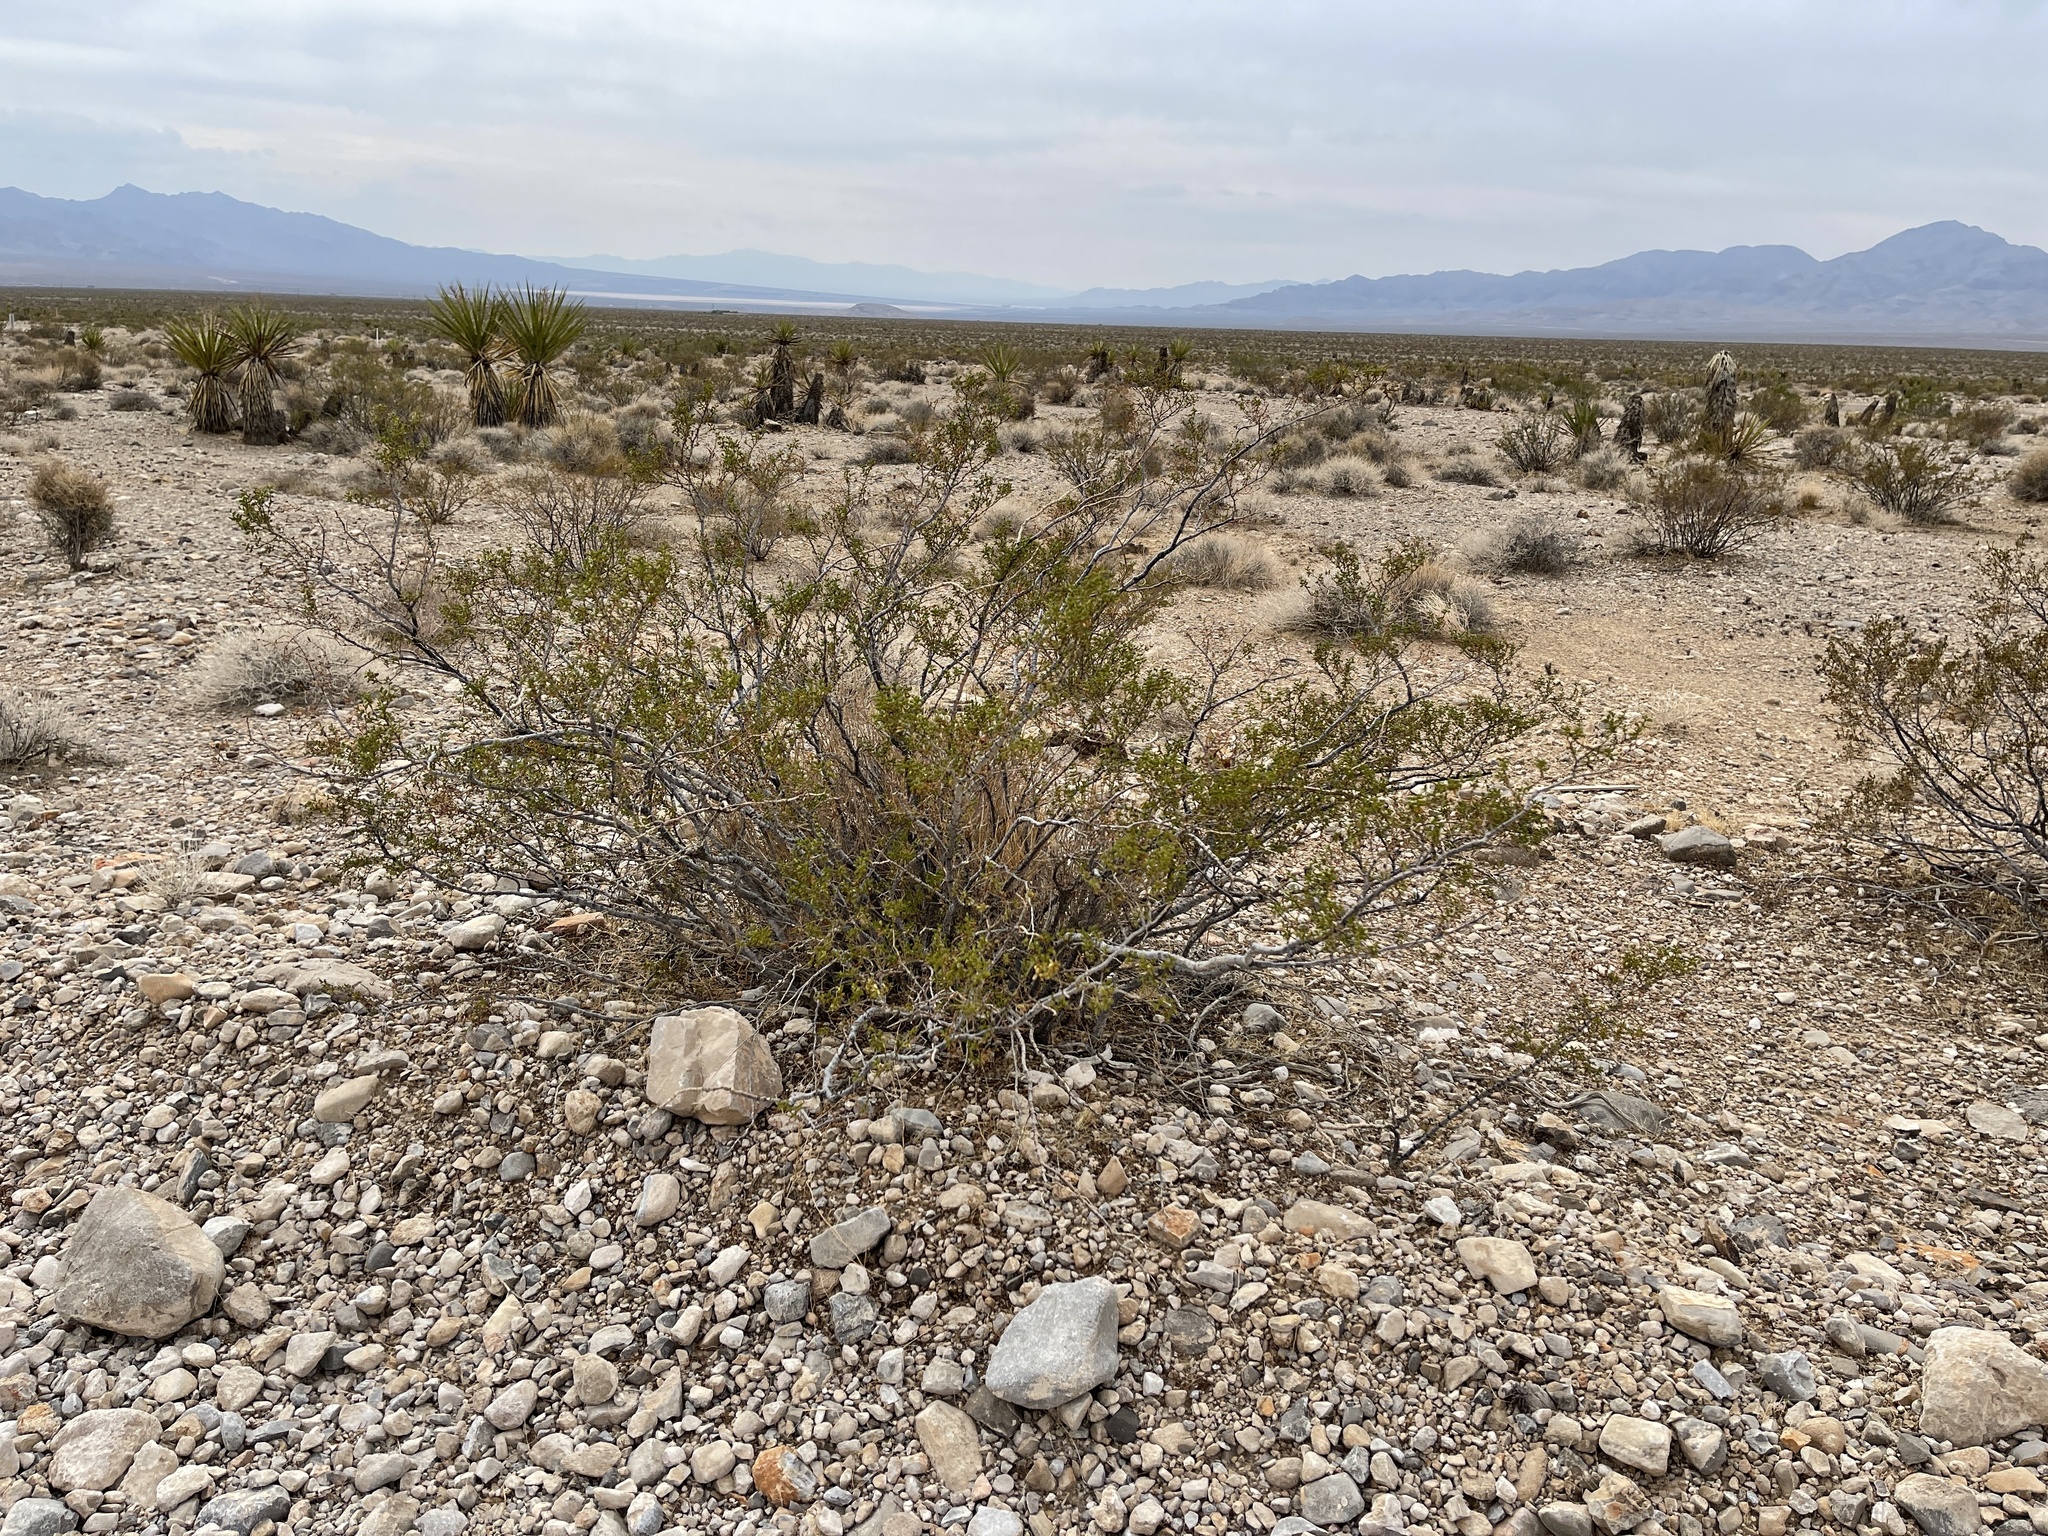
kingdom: Plantae
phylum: Tracheophyta
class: Magnoliopsida
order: Zygophyllales
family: Zygophyllaceae
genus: Larrea
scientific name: Larrea tridentata
